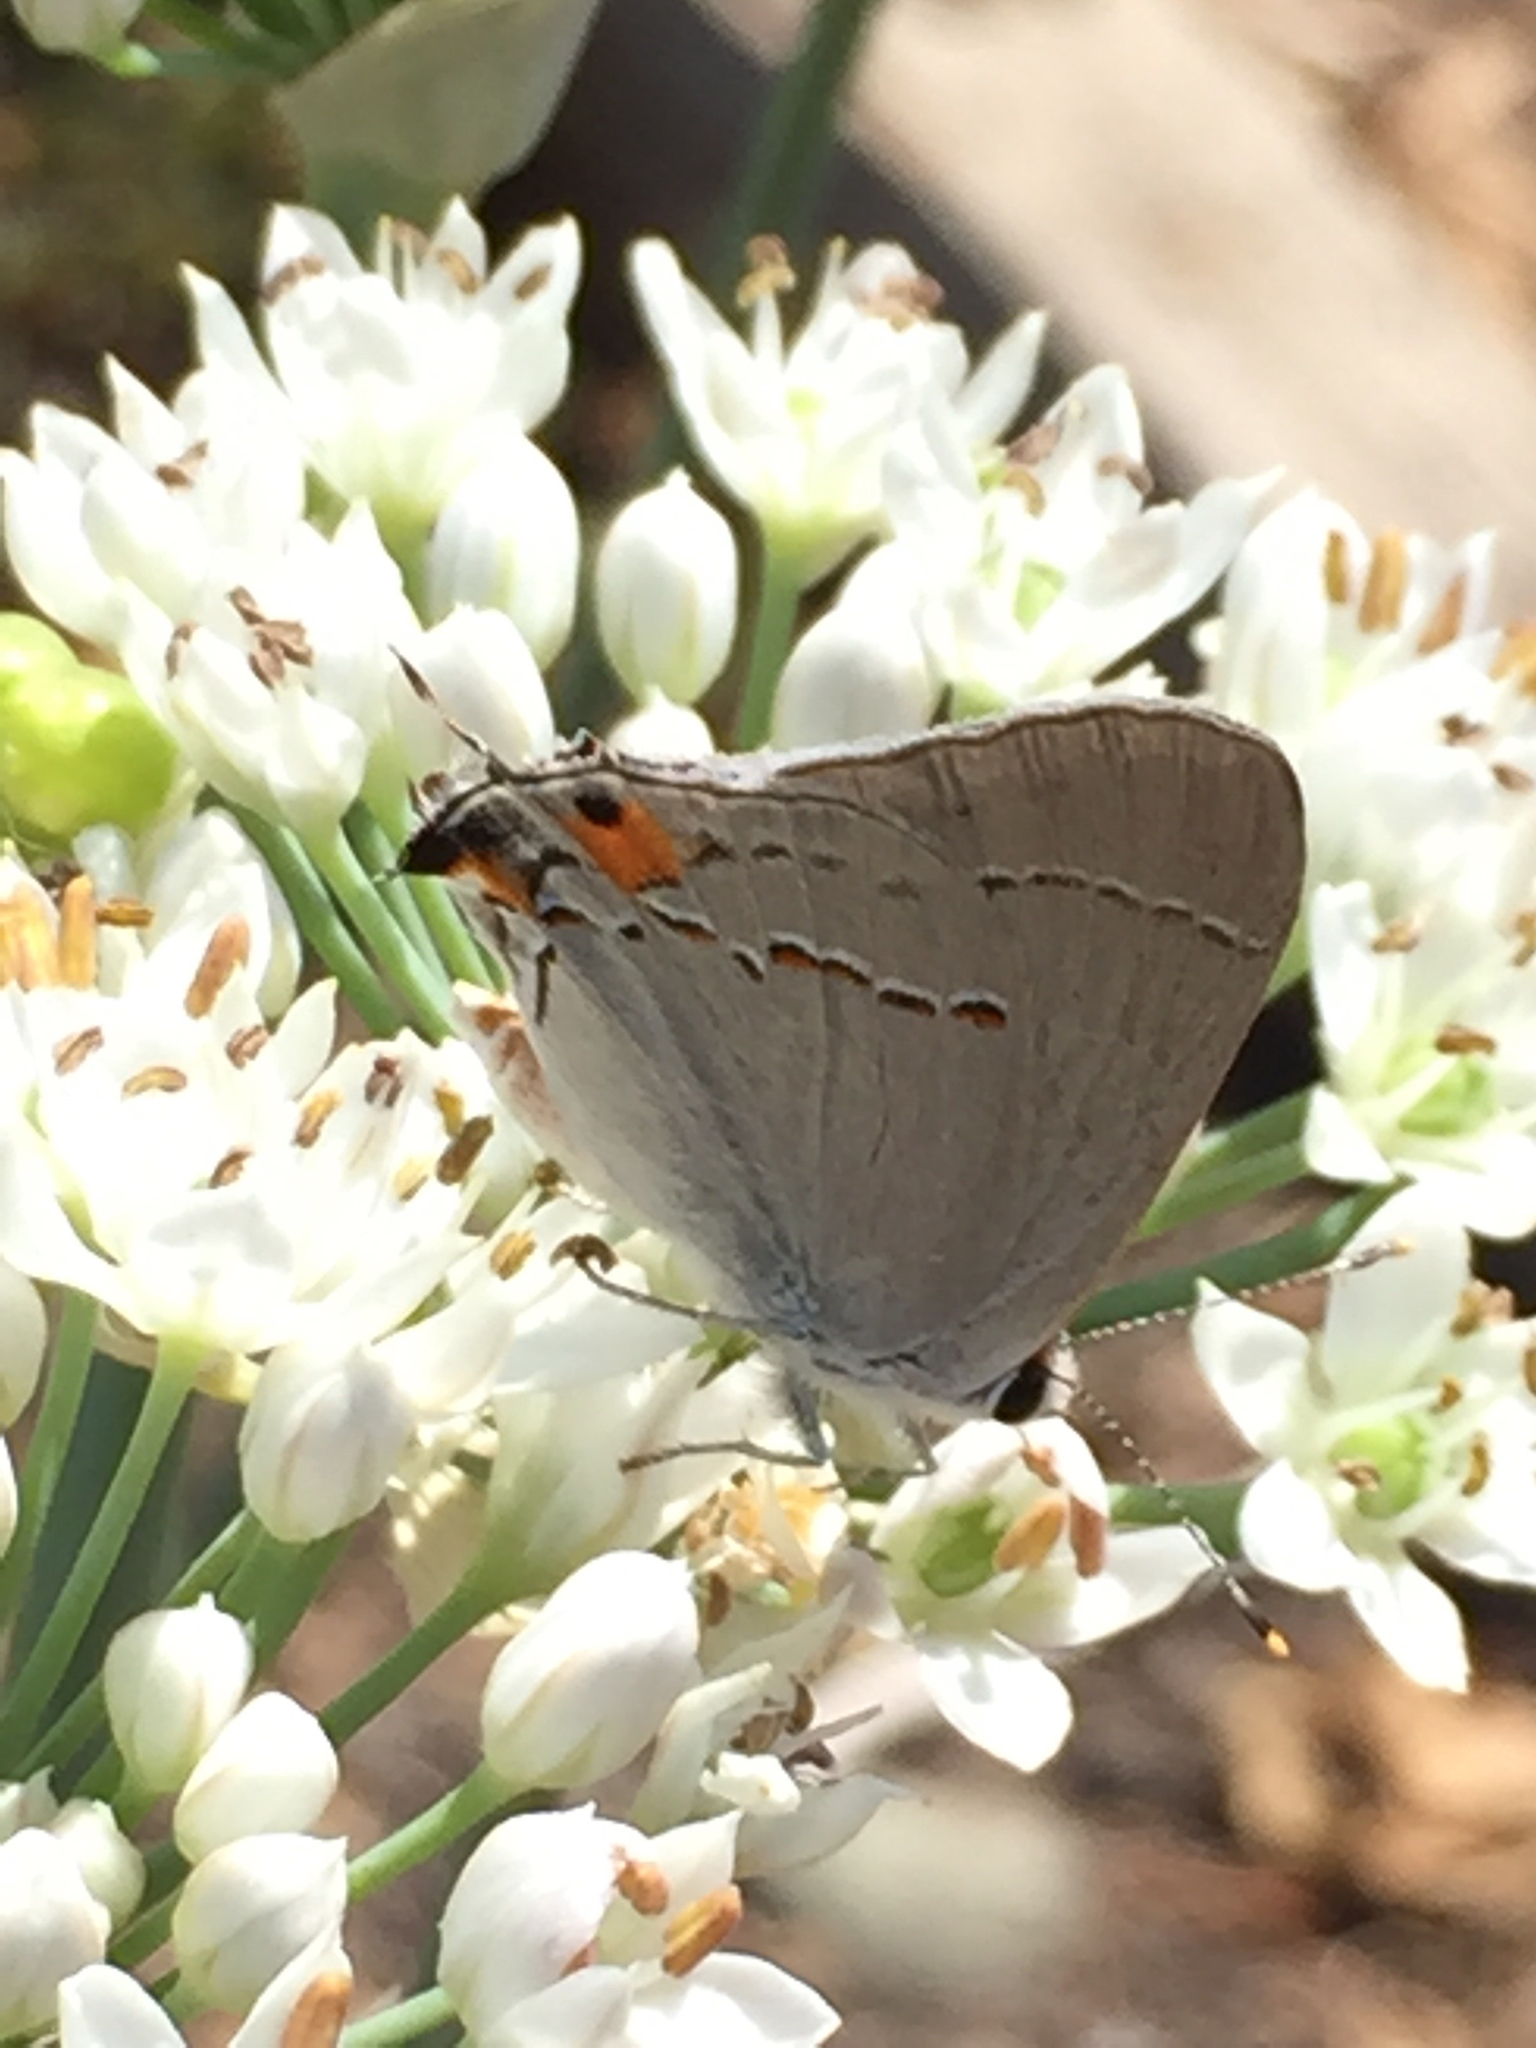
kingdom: Animalia
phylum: Arthropoda
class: Insecta
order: Lepidoptera
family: Lycaenidae
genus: Strymon
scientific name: Strymon melinus
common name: Gray hairstreak
